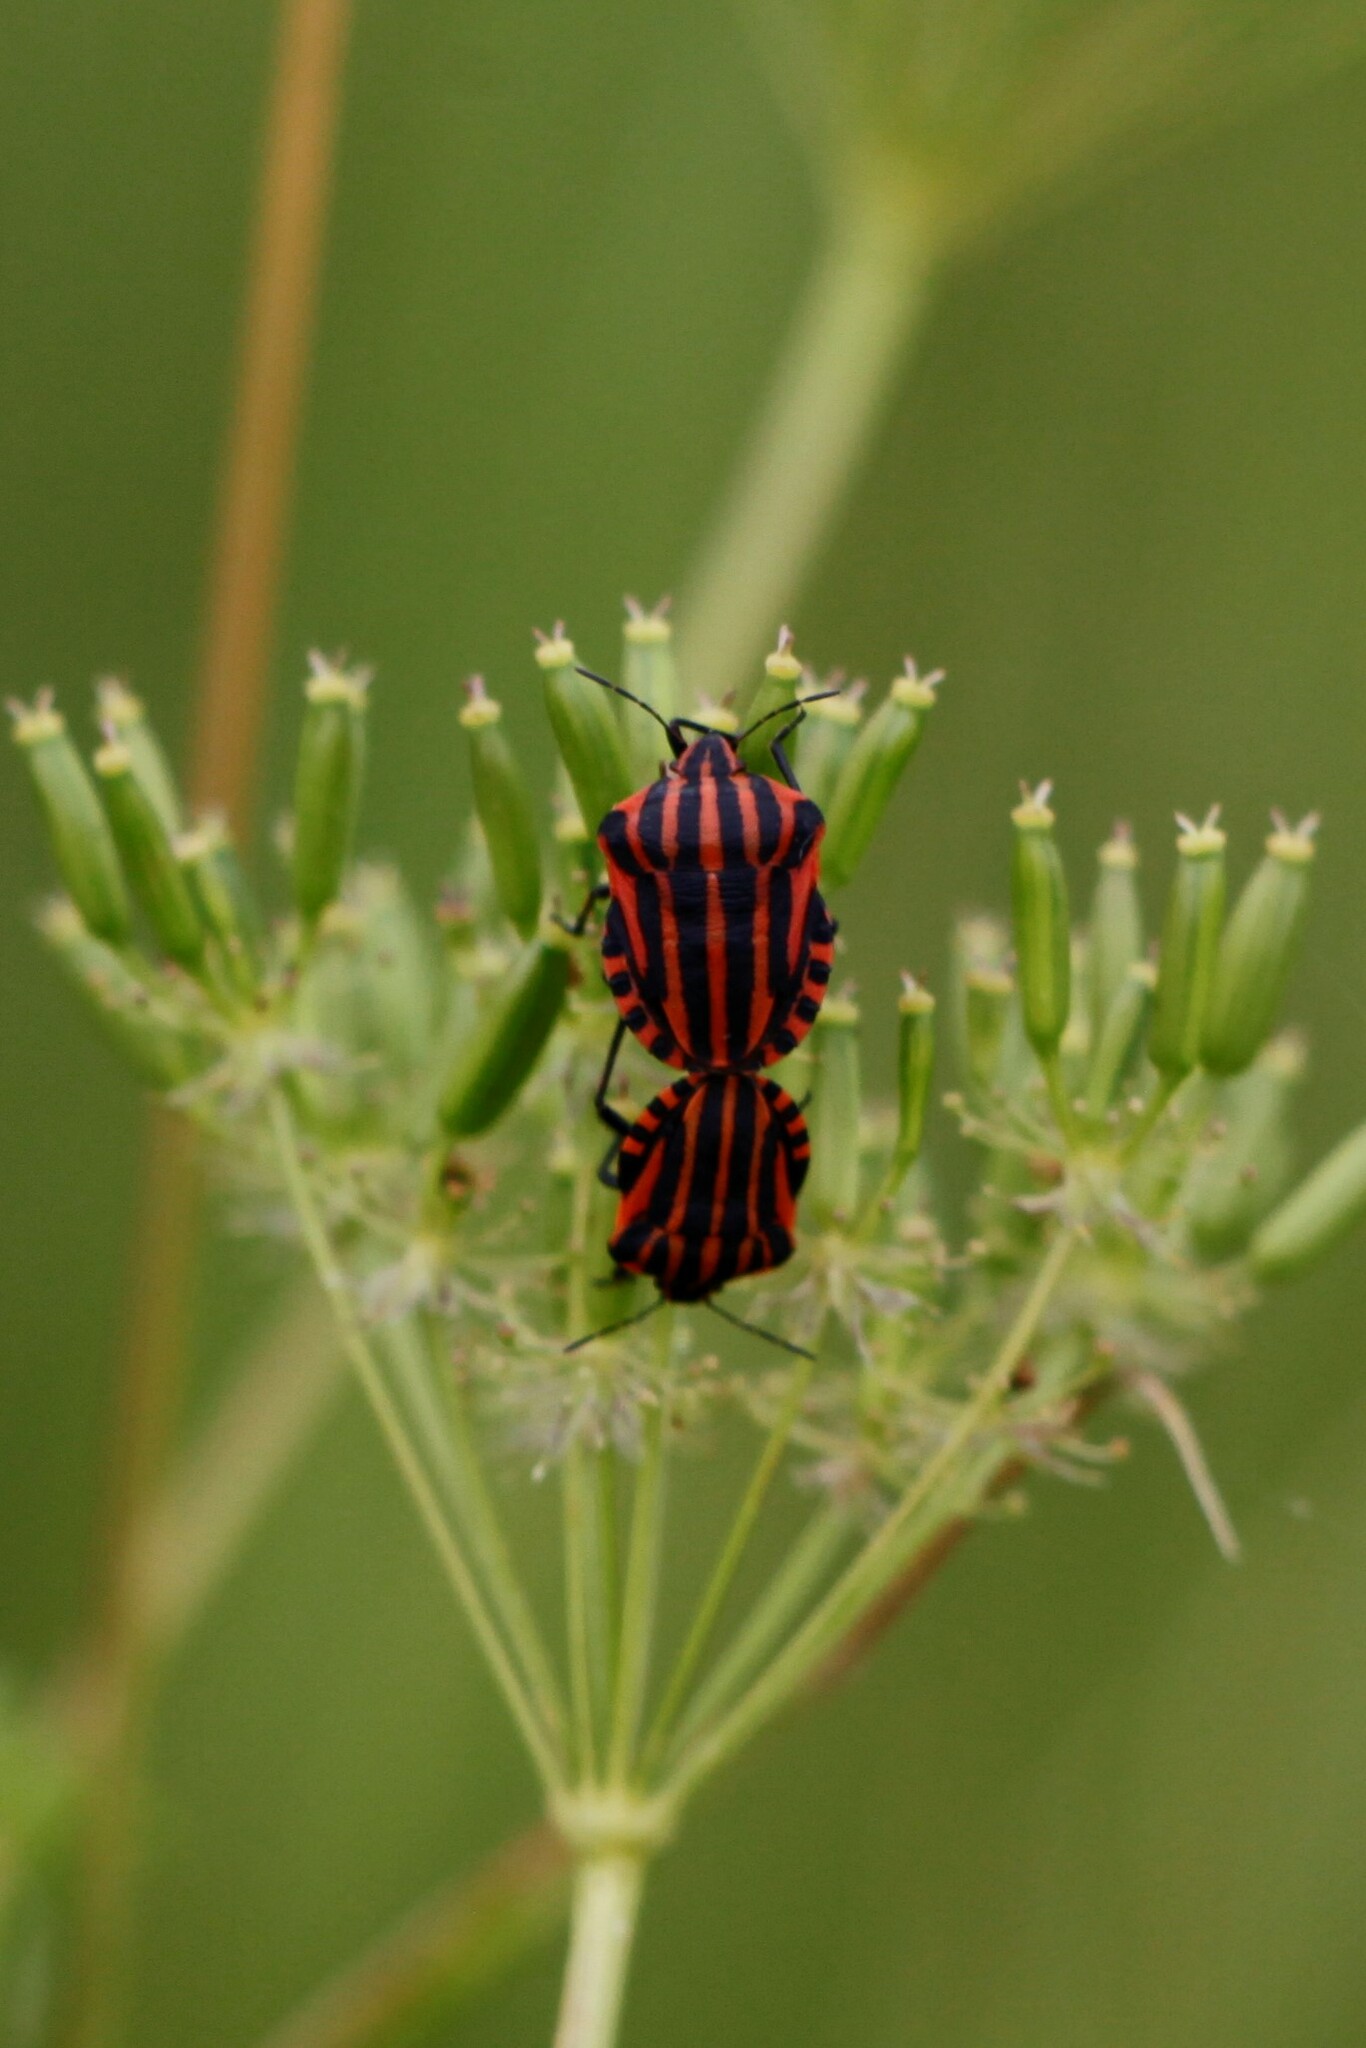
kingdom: Animalia
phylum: Arthropoda
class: Insecta
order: Hemiptera
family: Pentatomidae
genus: Graphosoma
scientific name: Graphosoma italicum
